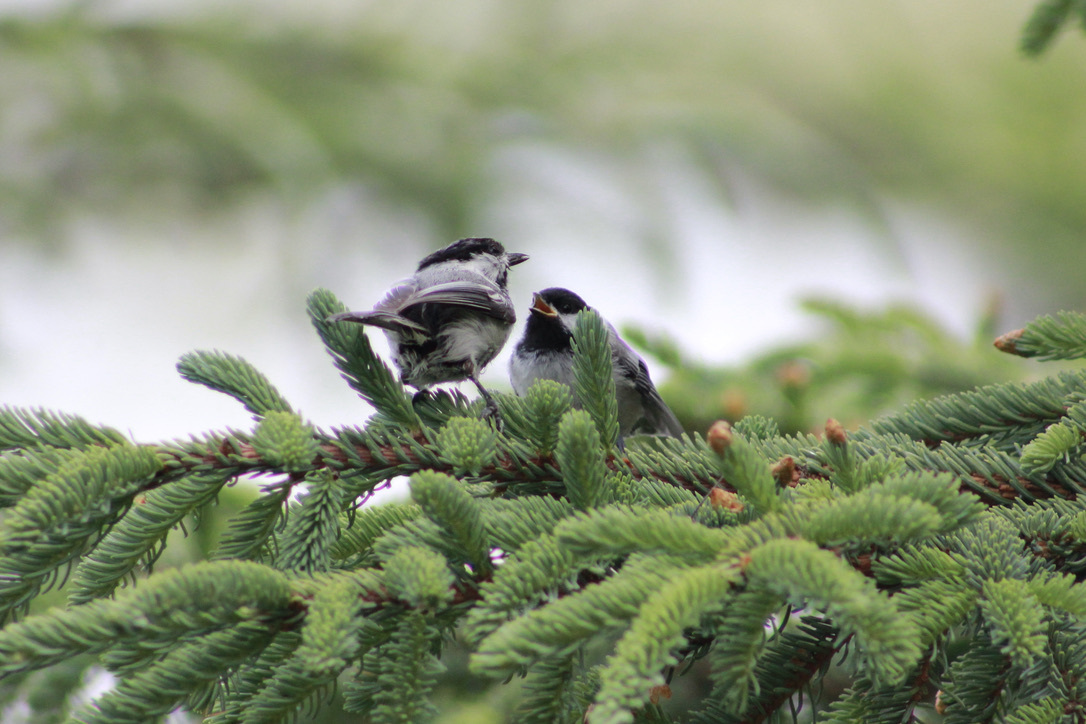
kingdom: Animalia
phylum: Chordata
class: Aves
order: Passeriformes
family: Paridae
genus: Poecile
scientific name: Poecile atricapillus
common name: Black-capped chickadee
